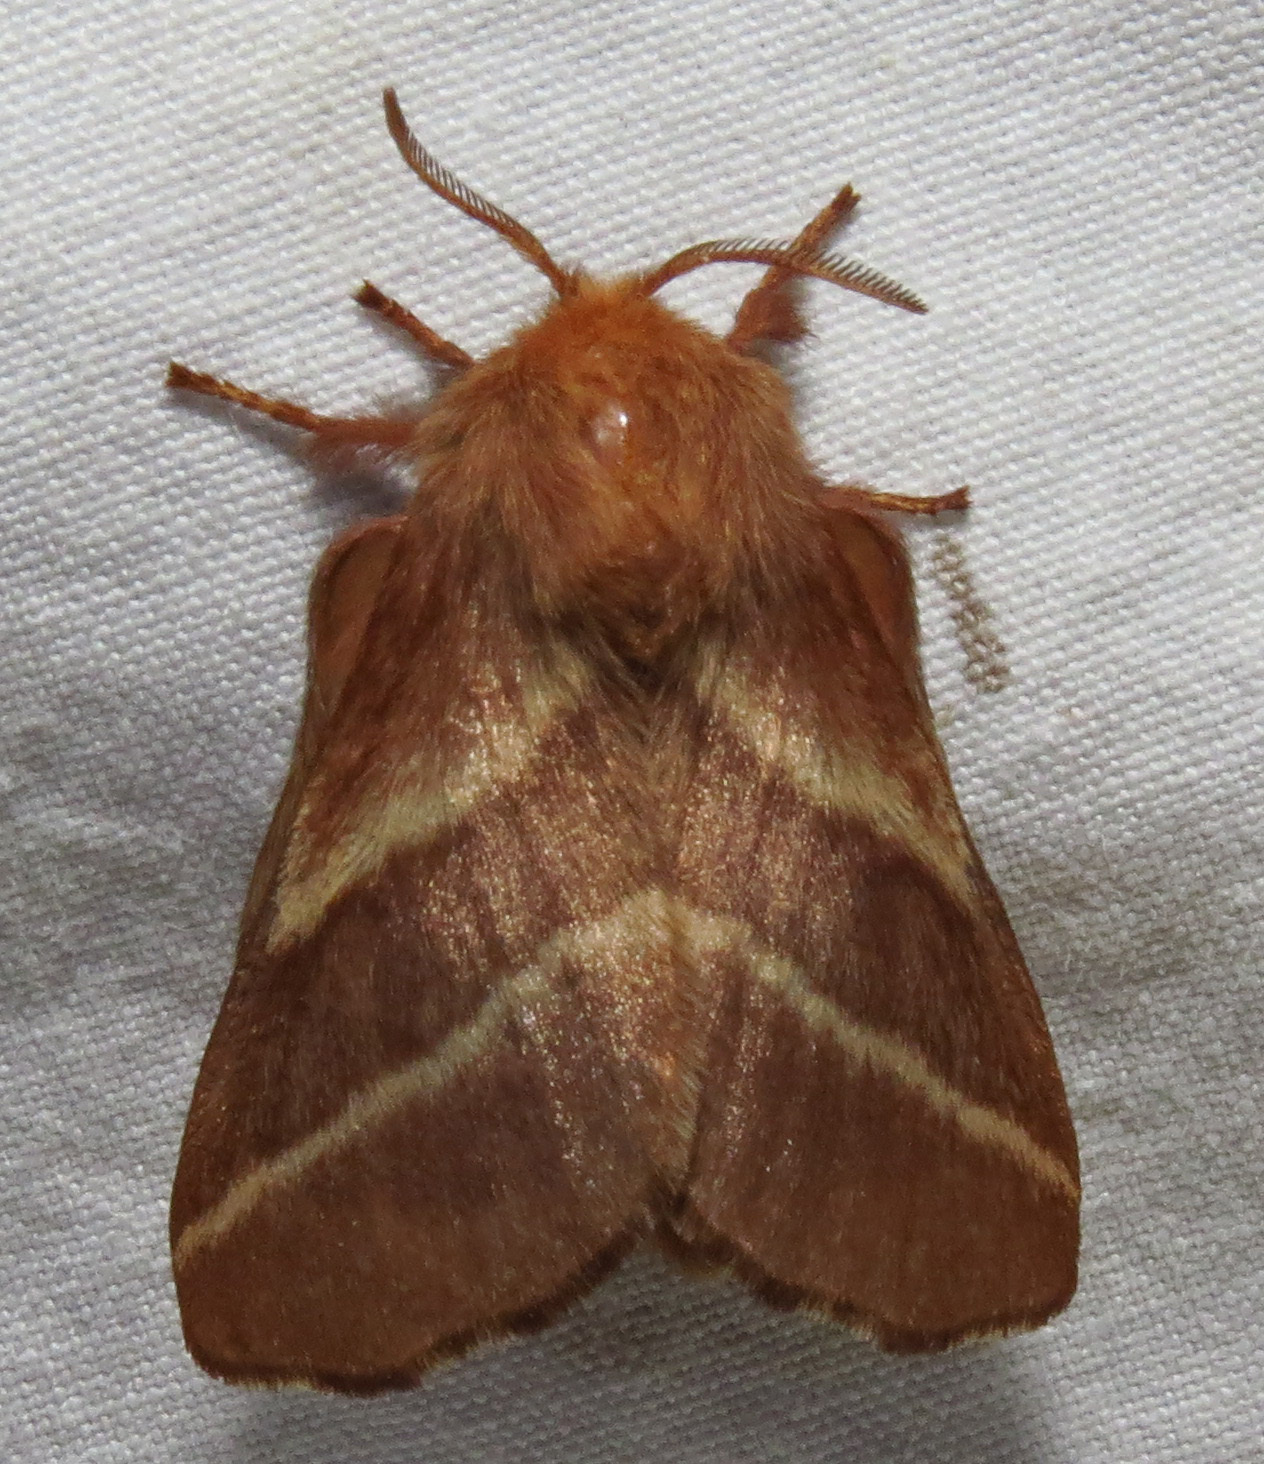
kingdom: Animalia
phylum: Arthropoda
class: Insecta
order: Lepidoptera
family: Lasiocampidae
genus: Malacosoma
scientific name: Malacosoma americana
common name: Eastern tent caterpillar moth
